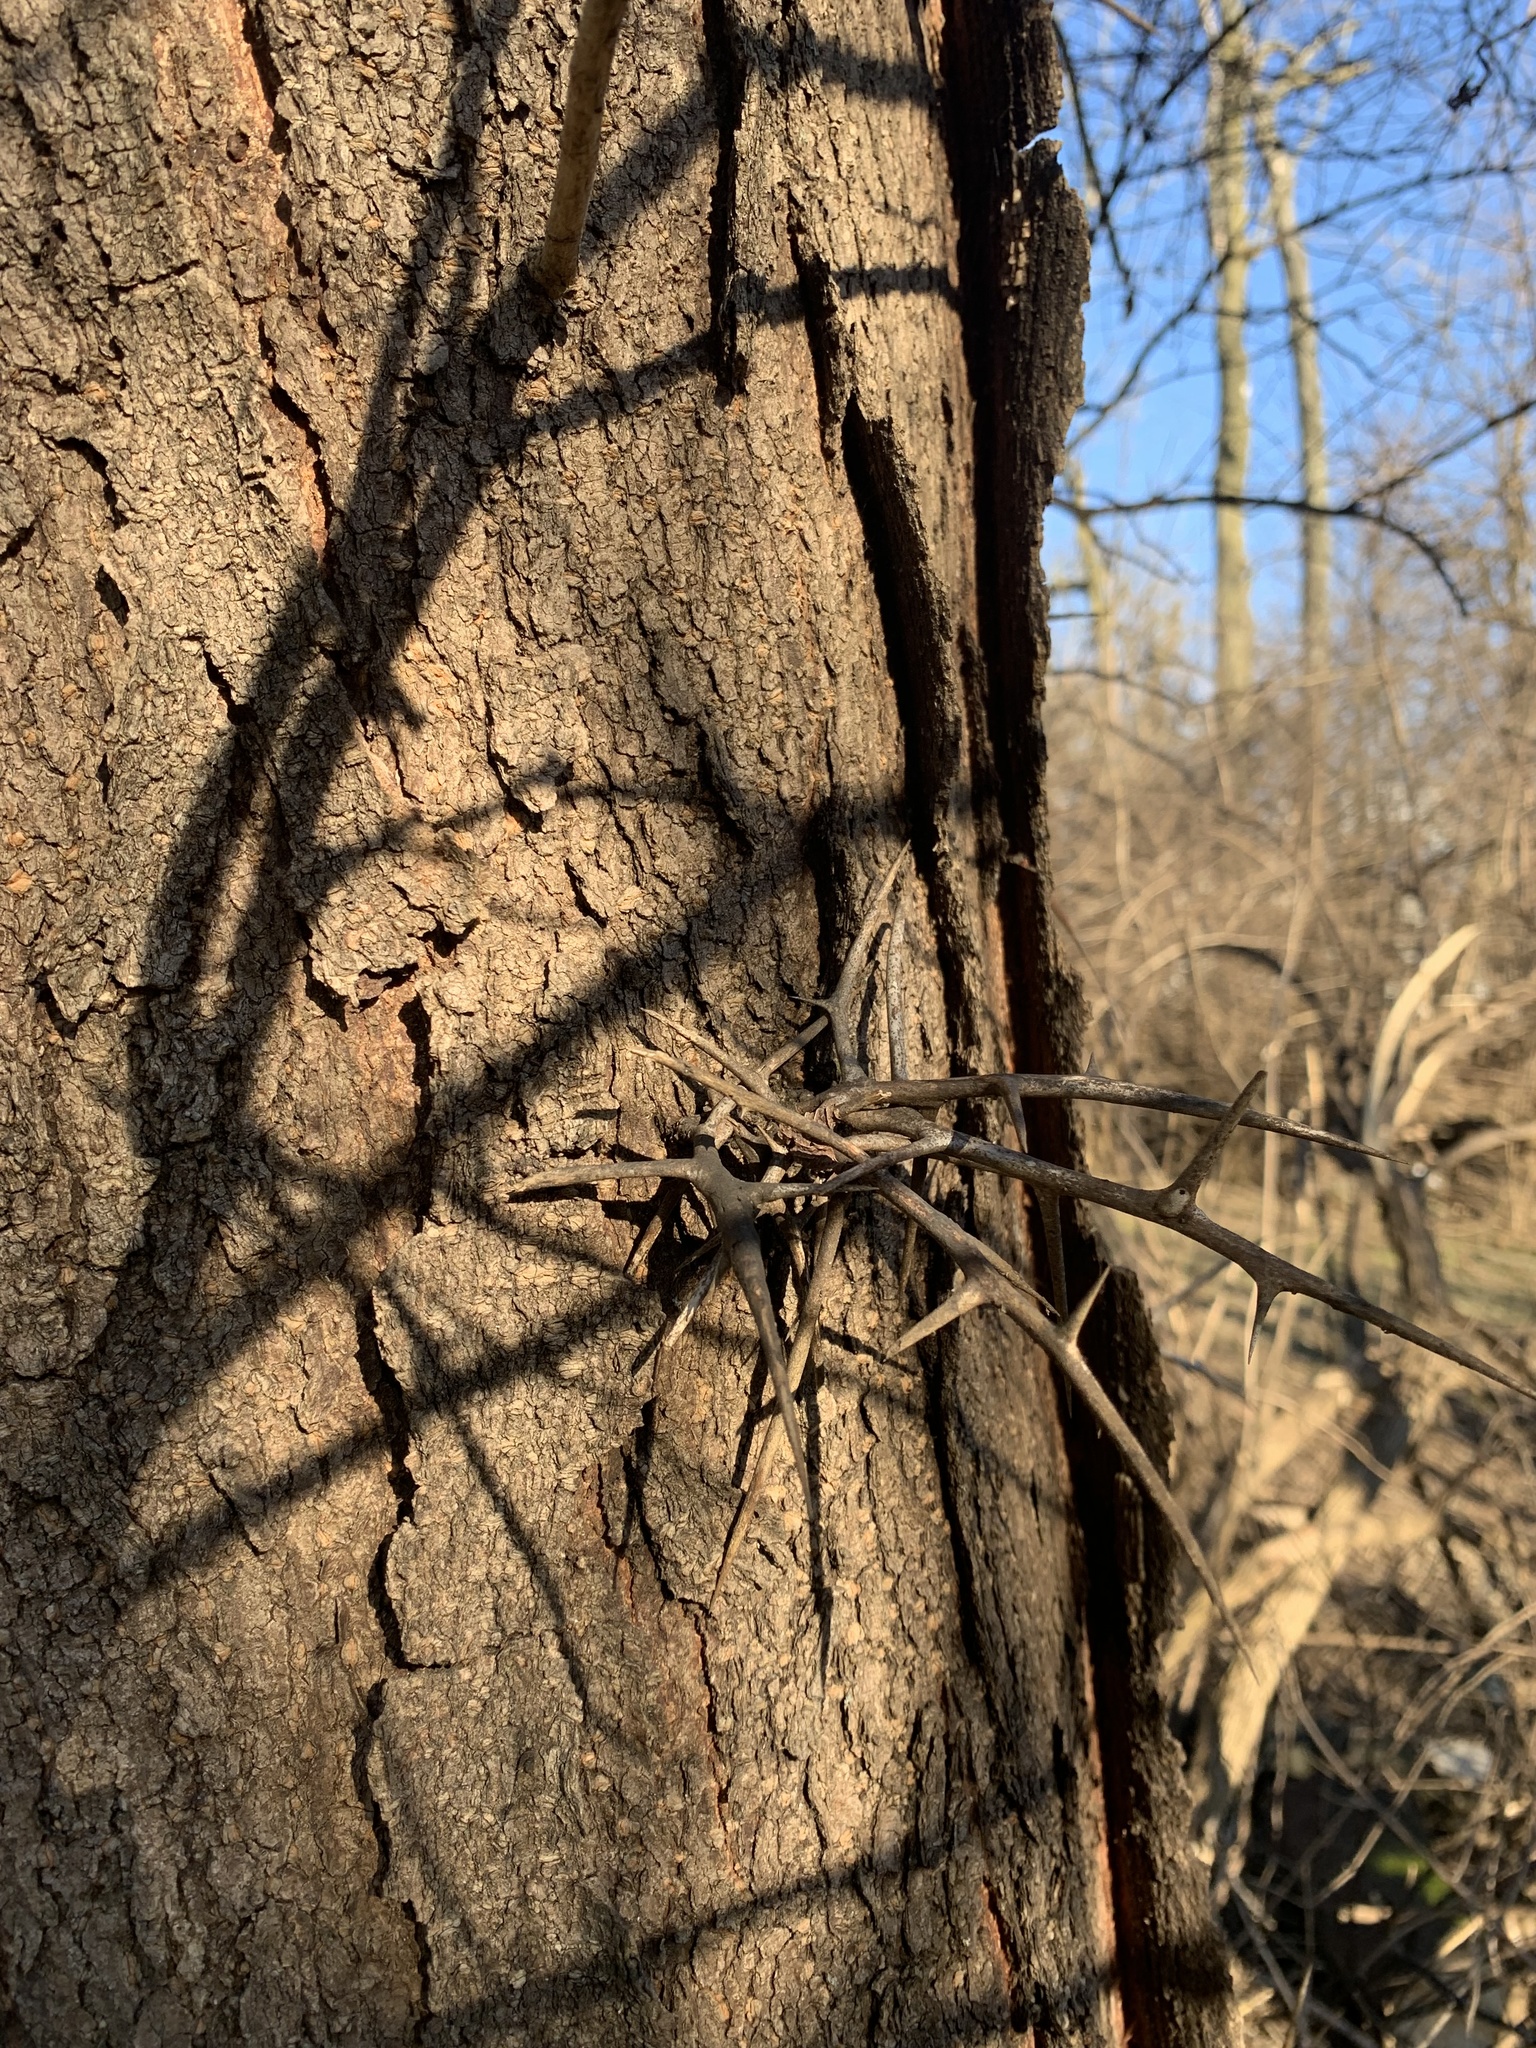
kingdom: Plantae
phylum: Tracheophyta
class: Magnoliopsida
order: Fabales
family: Fabaceae
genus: Gleditsia
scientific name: Gleditsia triacanthos
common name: Common honeylocust
